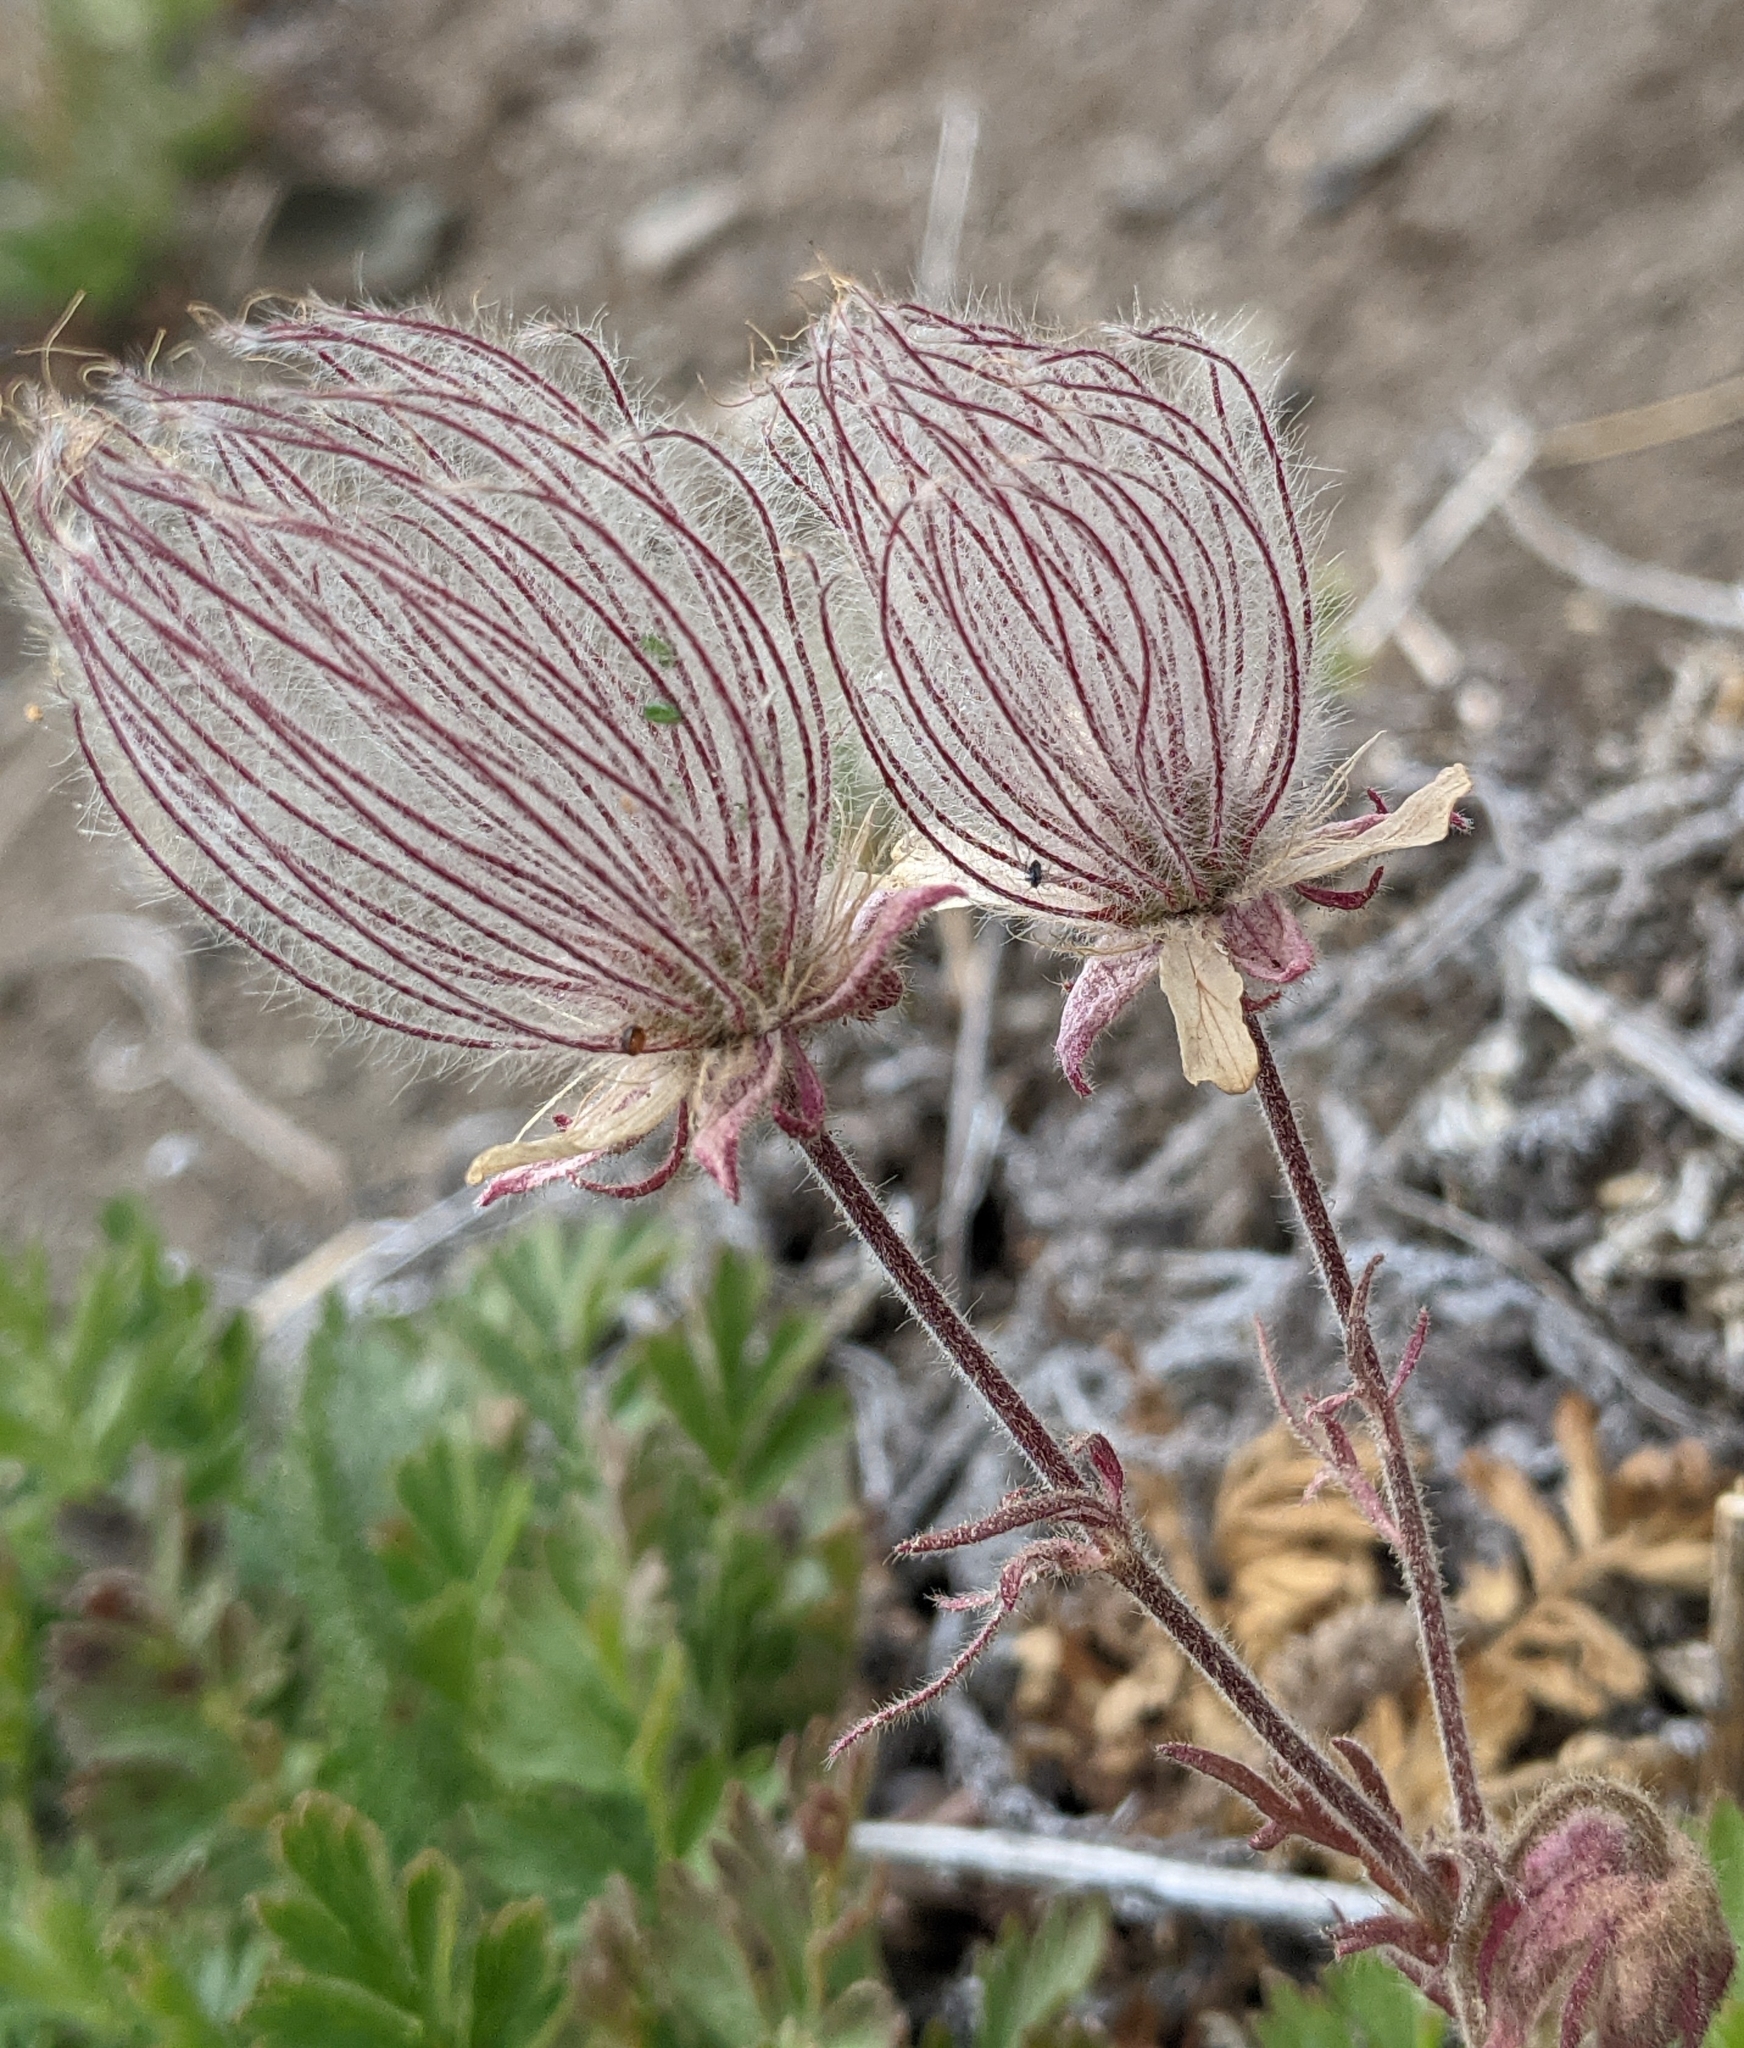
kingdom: Plantae
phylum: Tracheophyta
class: Magnoliopsida
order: Rosales
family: Rosaceae
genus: Geum
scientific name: Geum triflorum
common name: Old man's whiskers
